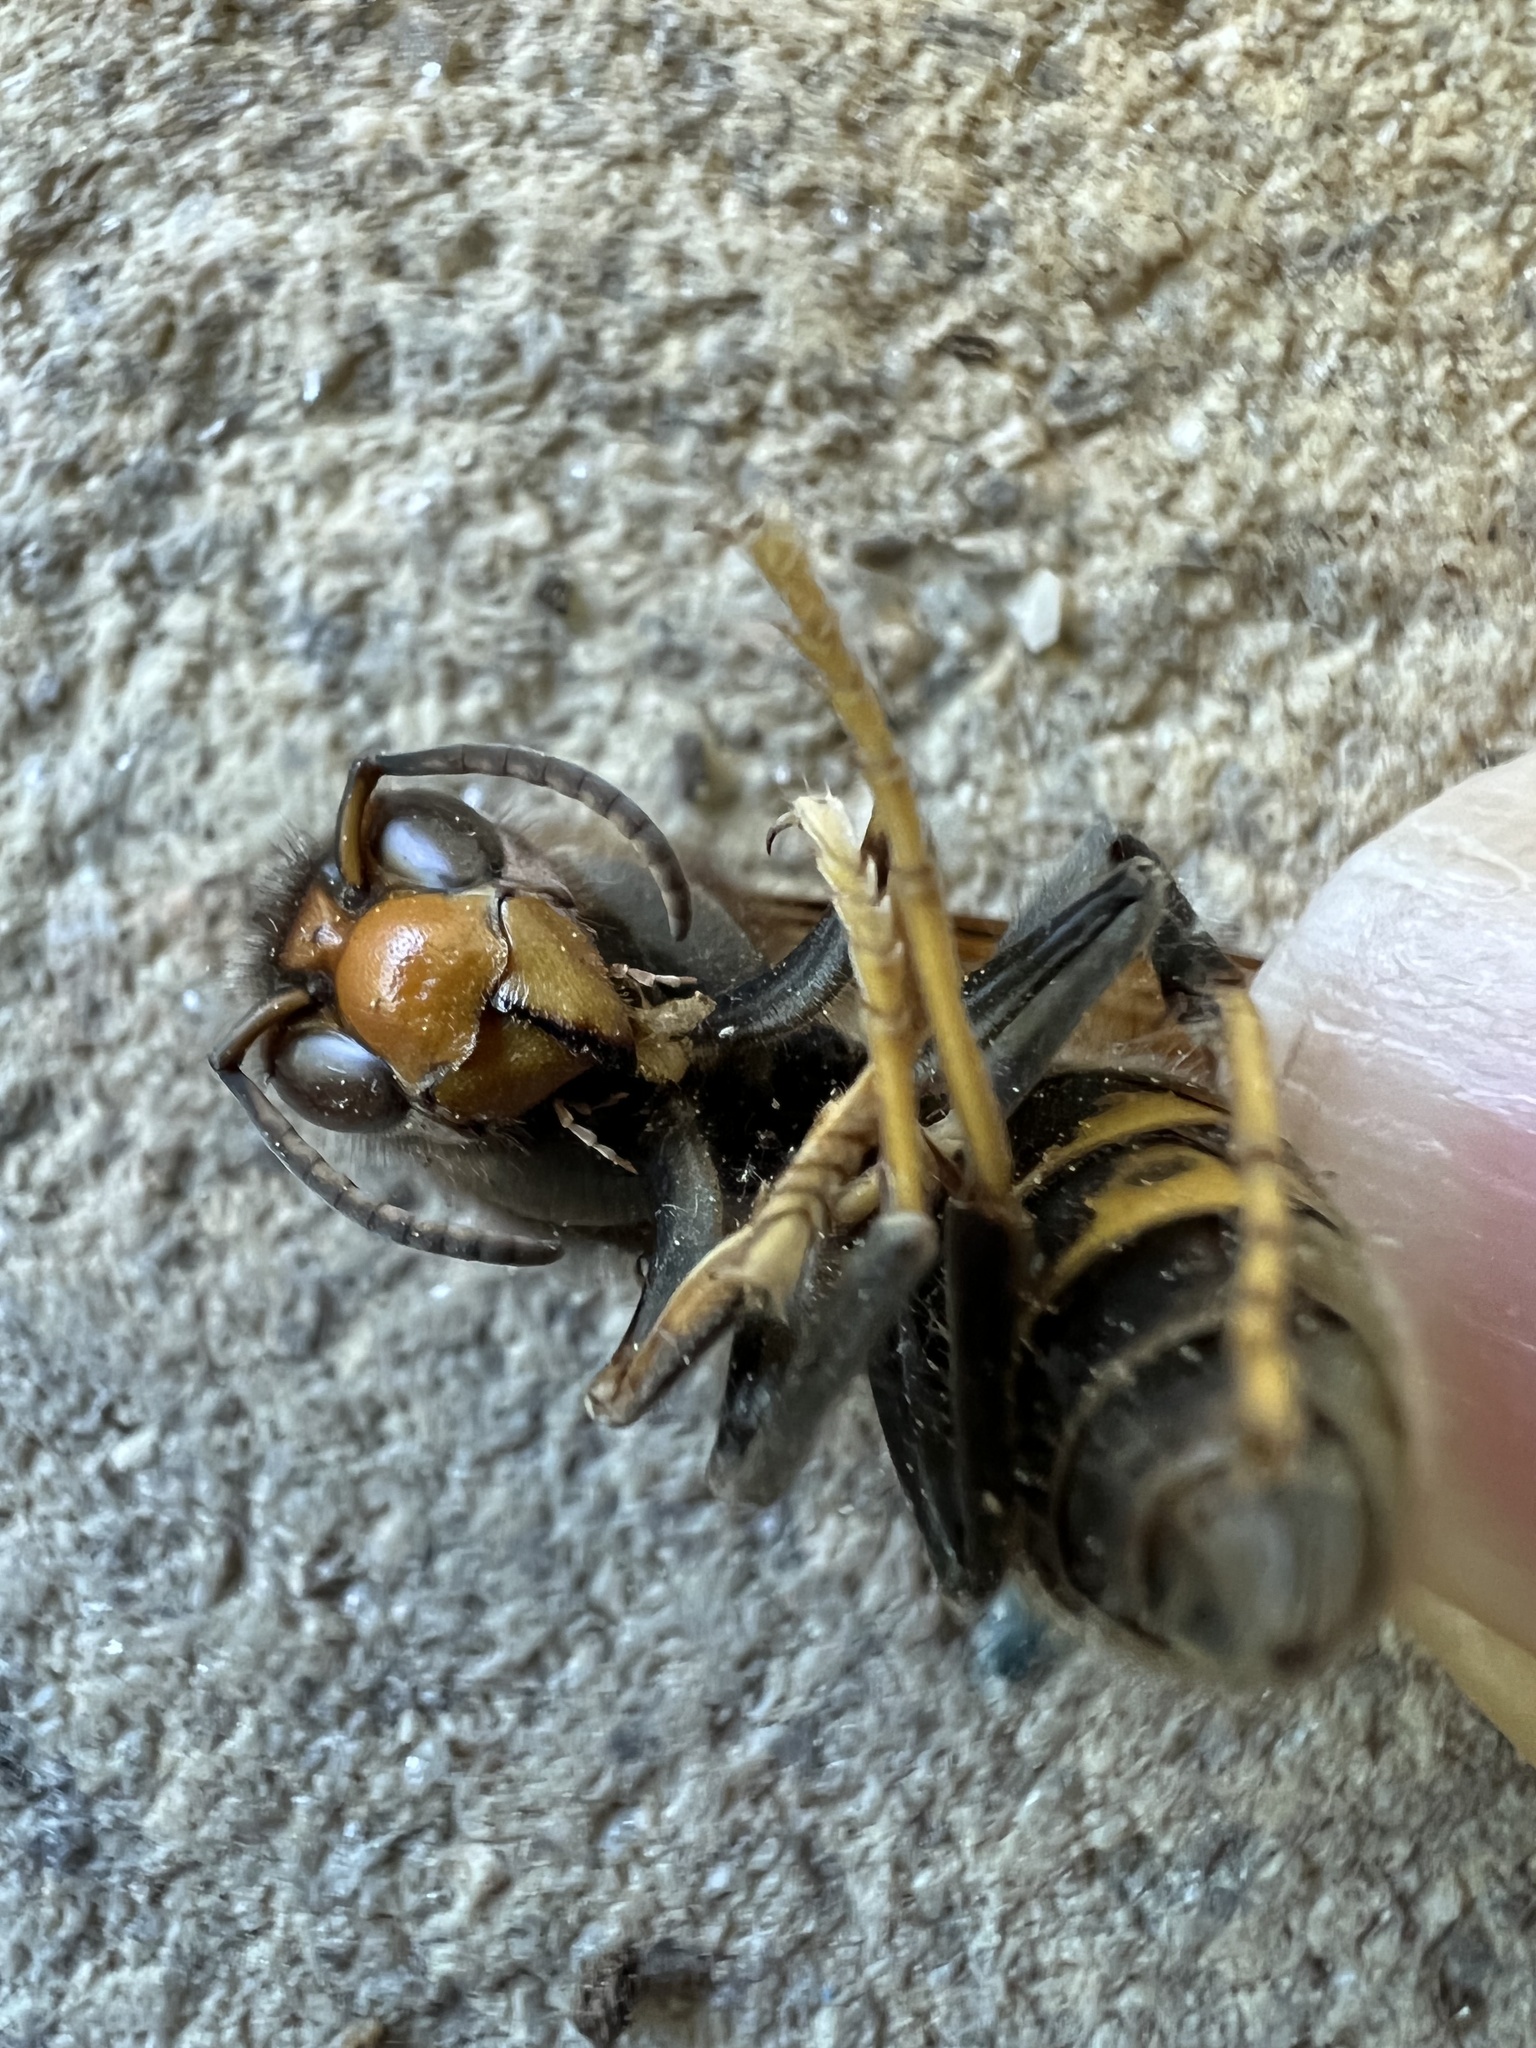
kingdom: Animalia
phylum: Arthropoda
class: Insecta
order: Hymenoptera
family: Vespidae
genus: Vespa
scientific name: Vespa velutina
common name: Asian hornet
